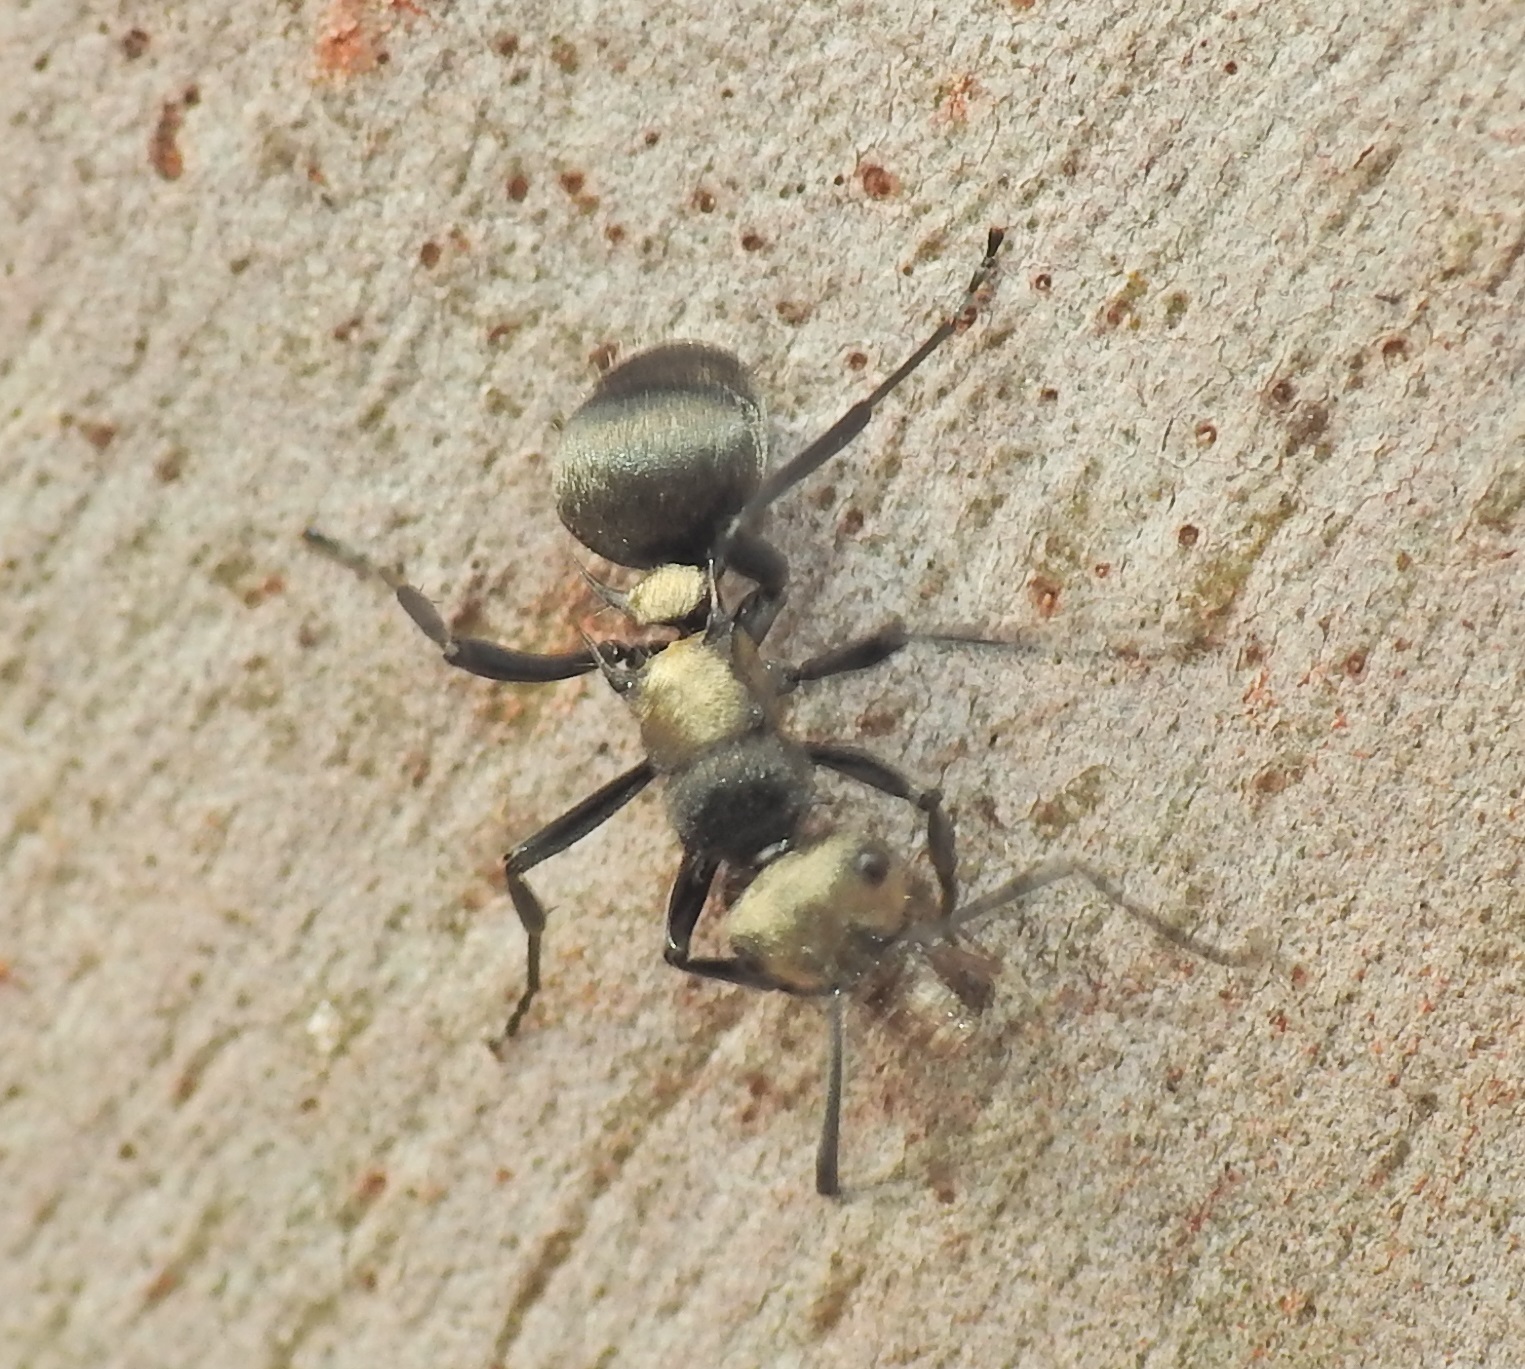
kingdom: Animalia
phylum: Arthropoda
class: Insecta
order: Hymenoptera
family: Formicidae
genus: Polyrhachis
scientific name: Polyrhachis daemeli
